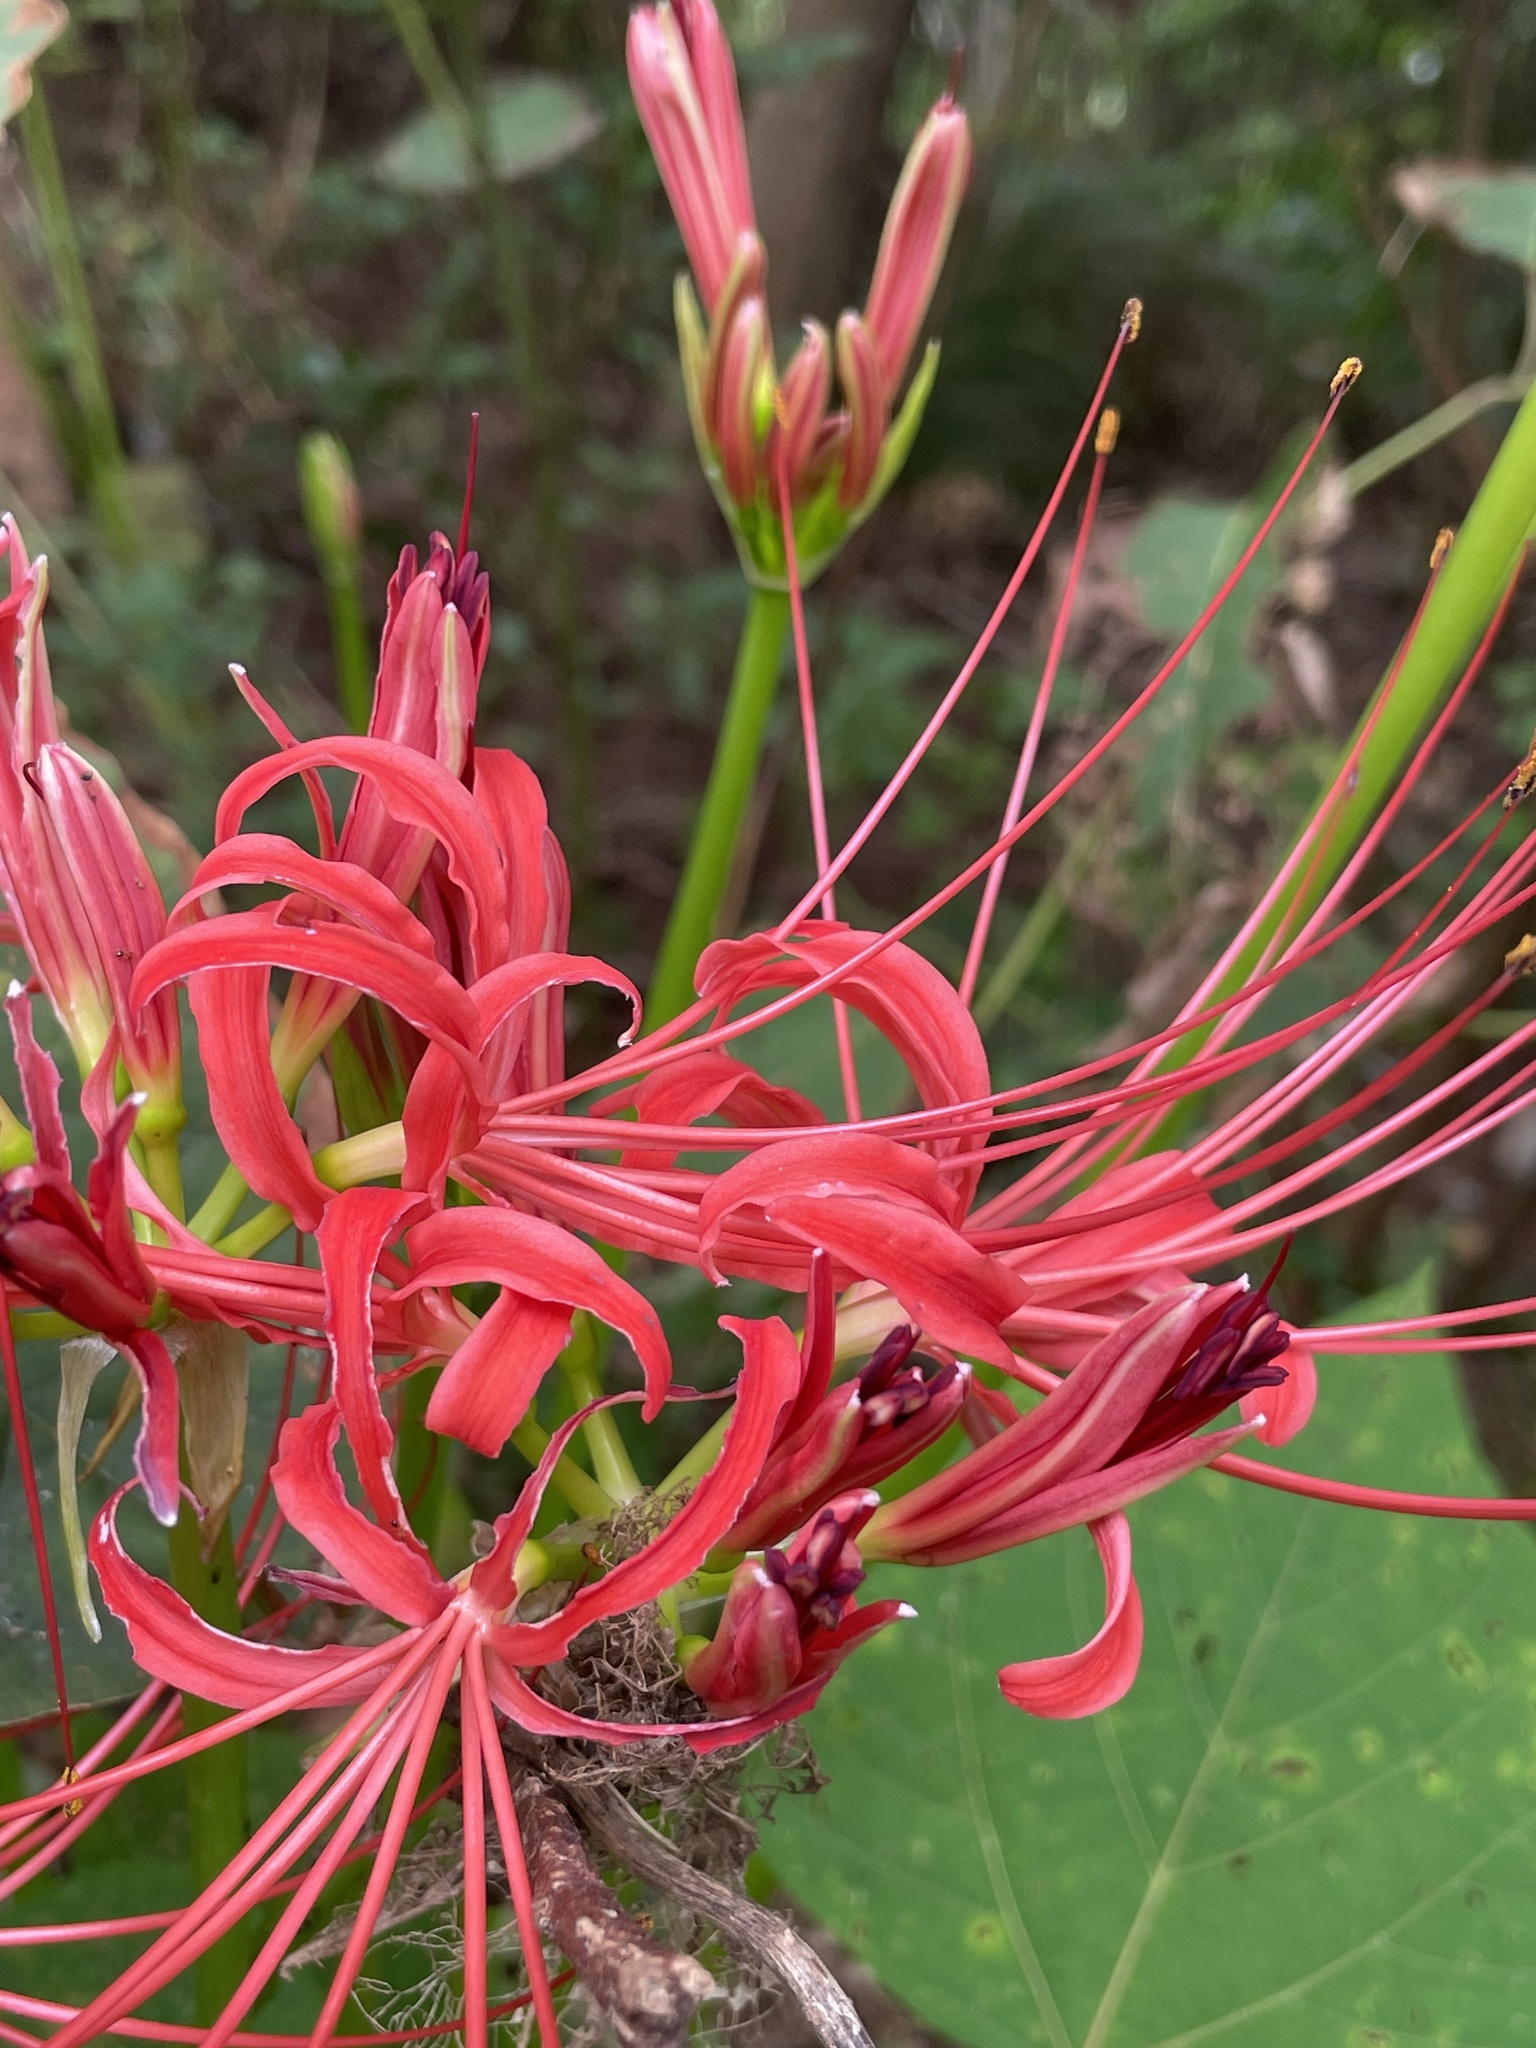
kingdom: Plantae
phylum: Tracheophyta
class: Liliopsida
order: Asparagales
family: Amaryllidaceae
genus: Lycoris
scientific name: Lycoris radiata
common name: Red spider lily
